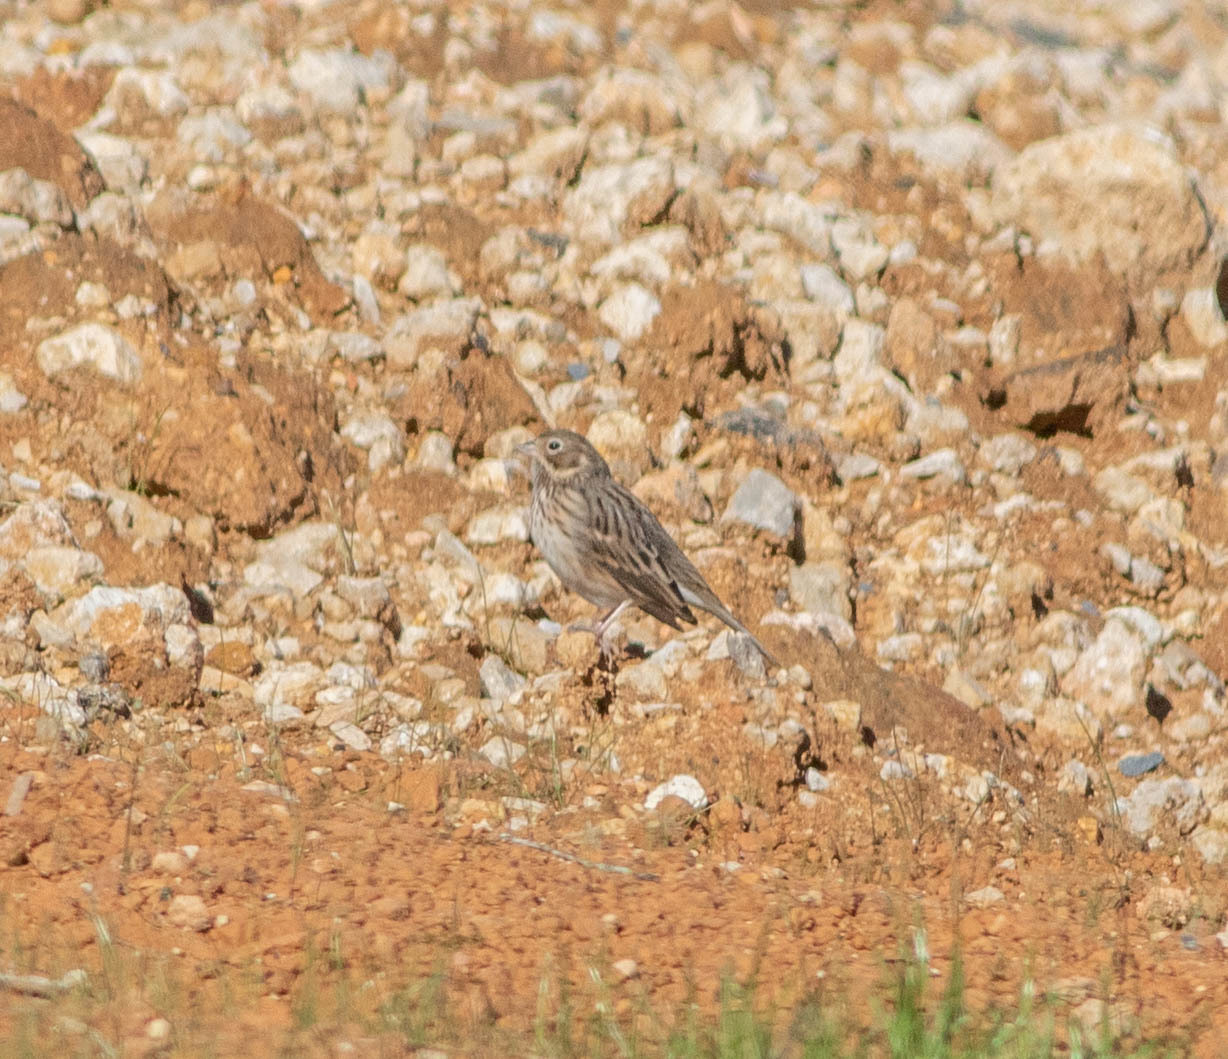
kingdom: Animalia
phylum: Chordata
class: Aves
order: Passeriformes
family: Passerellidae
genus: Pooecetes
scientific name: Pooecetes gramineus
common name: Vesper sparrow
